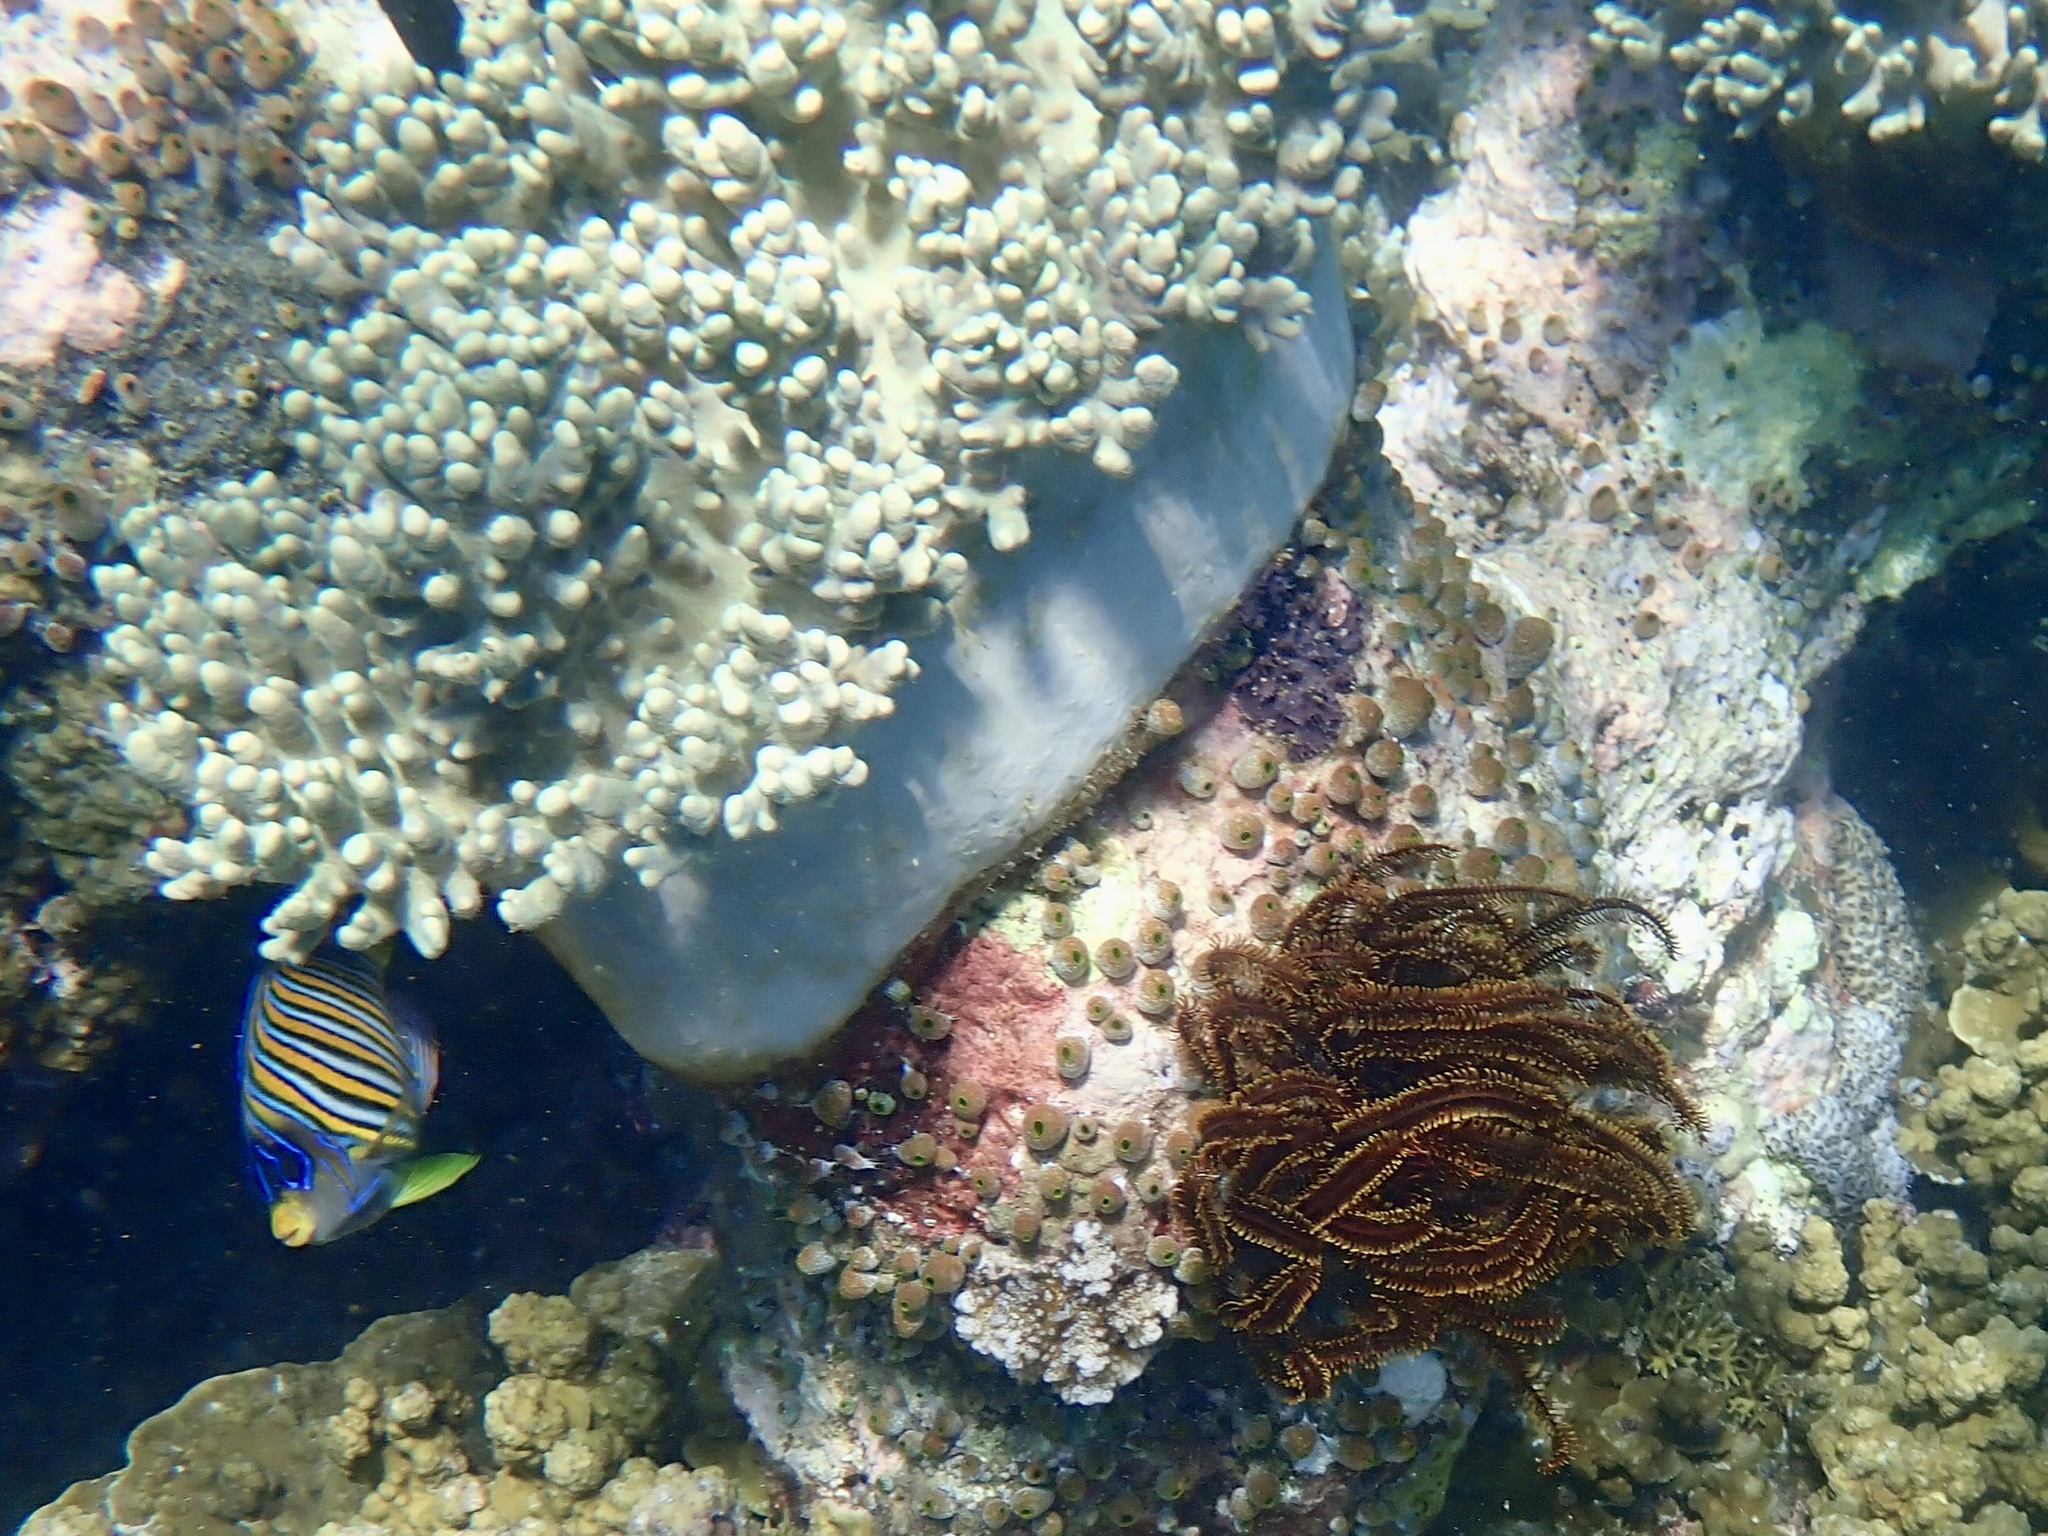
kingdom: Animalia
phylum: Chordata
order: Perciformes
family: Pomacanthidae
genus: Pygoplites
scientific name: Pygoplites diacanthus
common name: Regal angelfish
